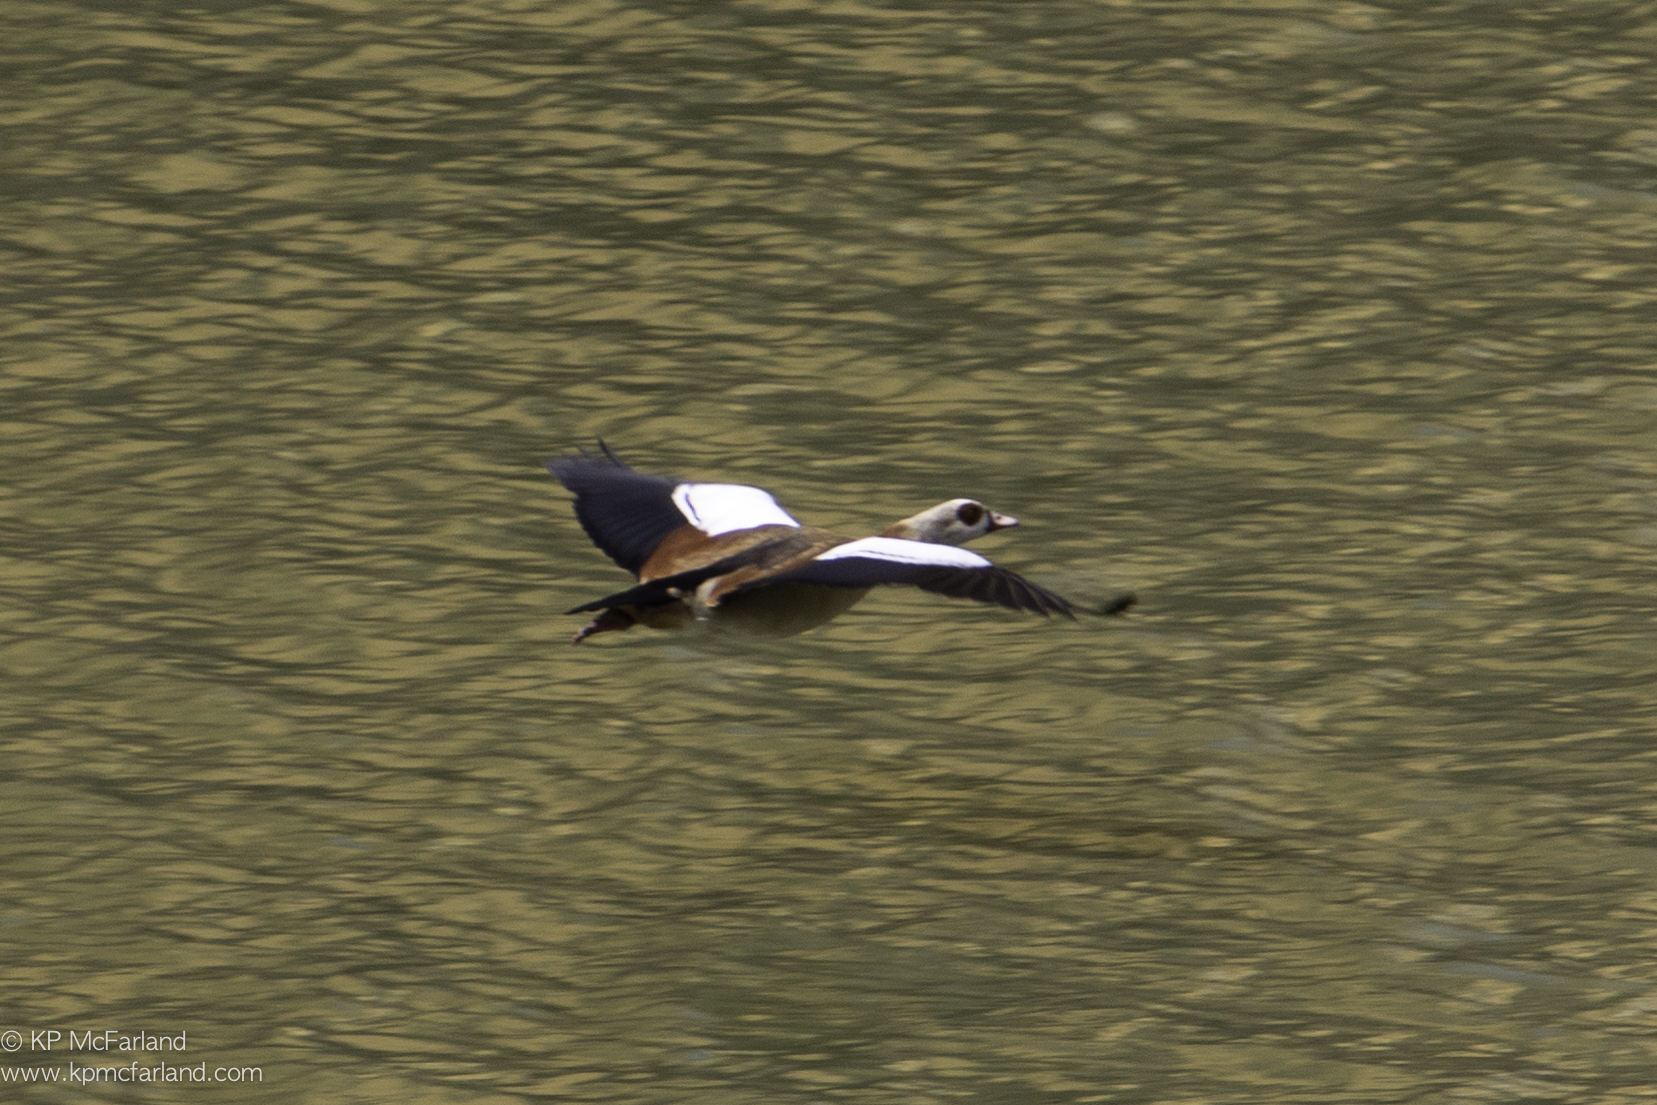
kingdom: Animalia
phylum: Chordata
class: Aves
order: Anseriformes
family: Anatidae
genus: Alopochen
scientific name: Alopochen aegyptiaca
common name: Egyptian goose
